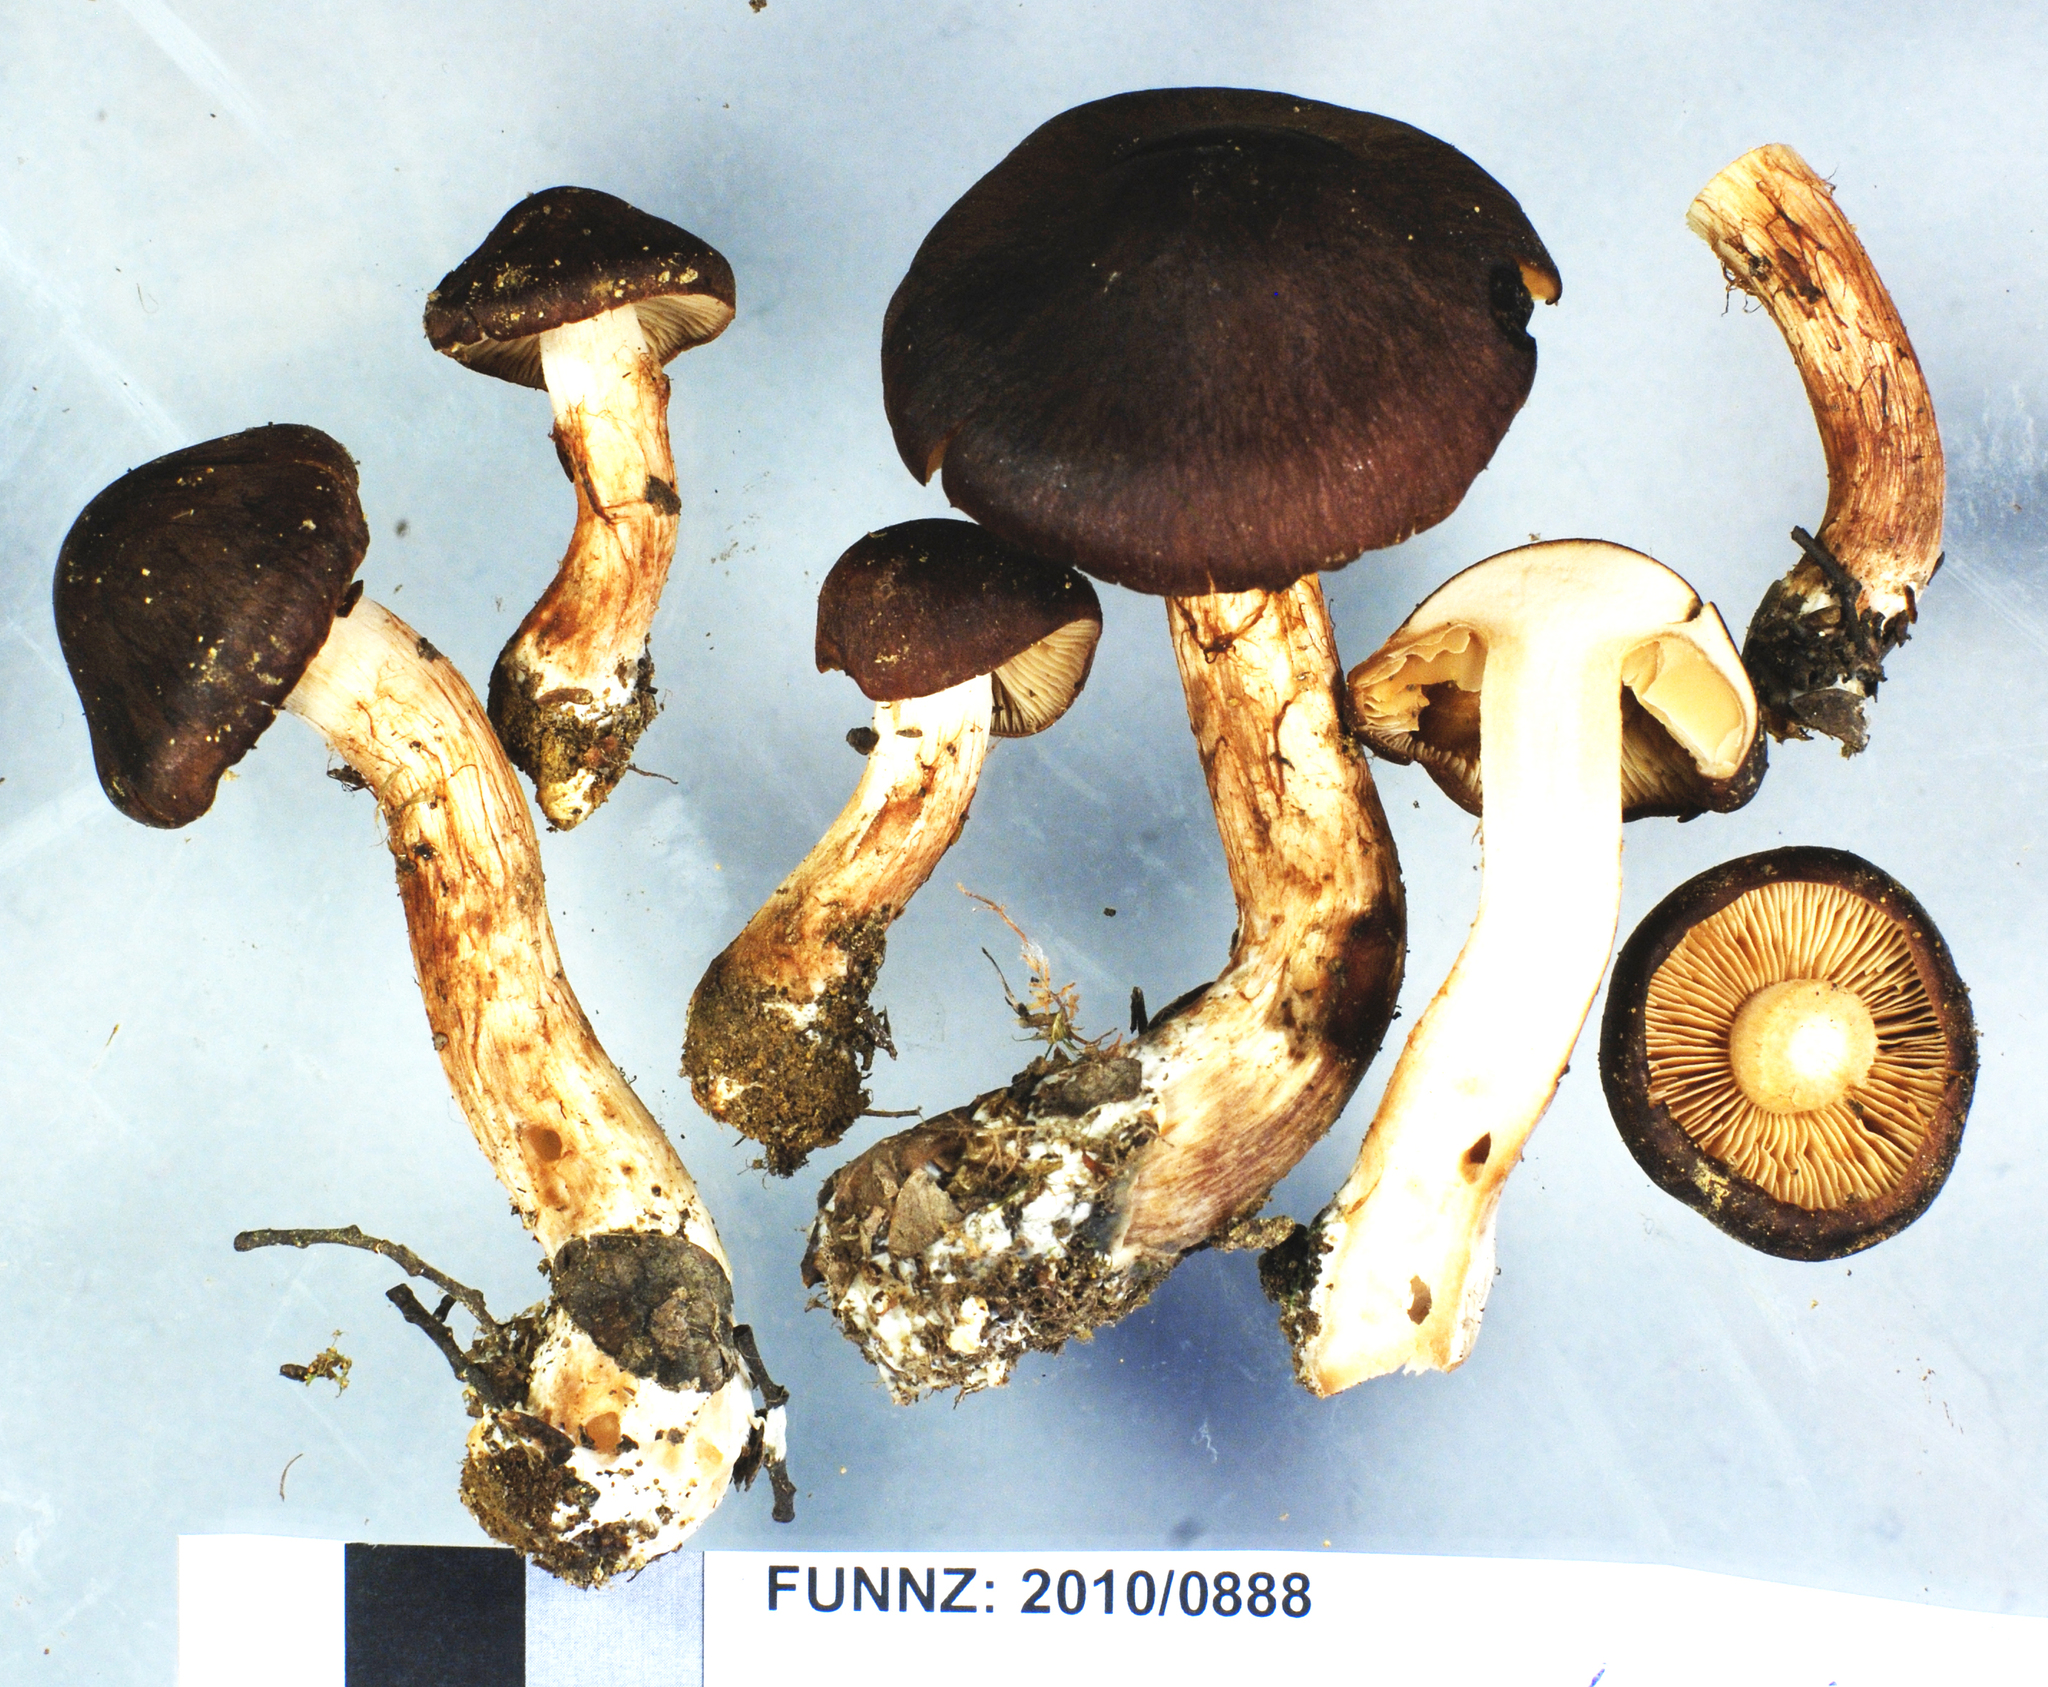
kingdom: Fungi
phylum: Basidiomycota
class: Agaricomycetes
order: Agaricales
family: Cortinariaceae
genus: Cystinarius
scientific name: Cystinarius eutactus
